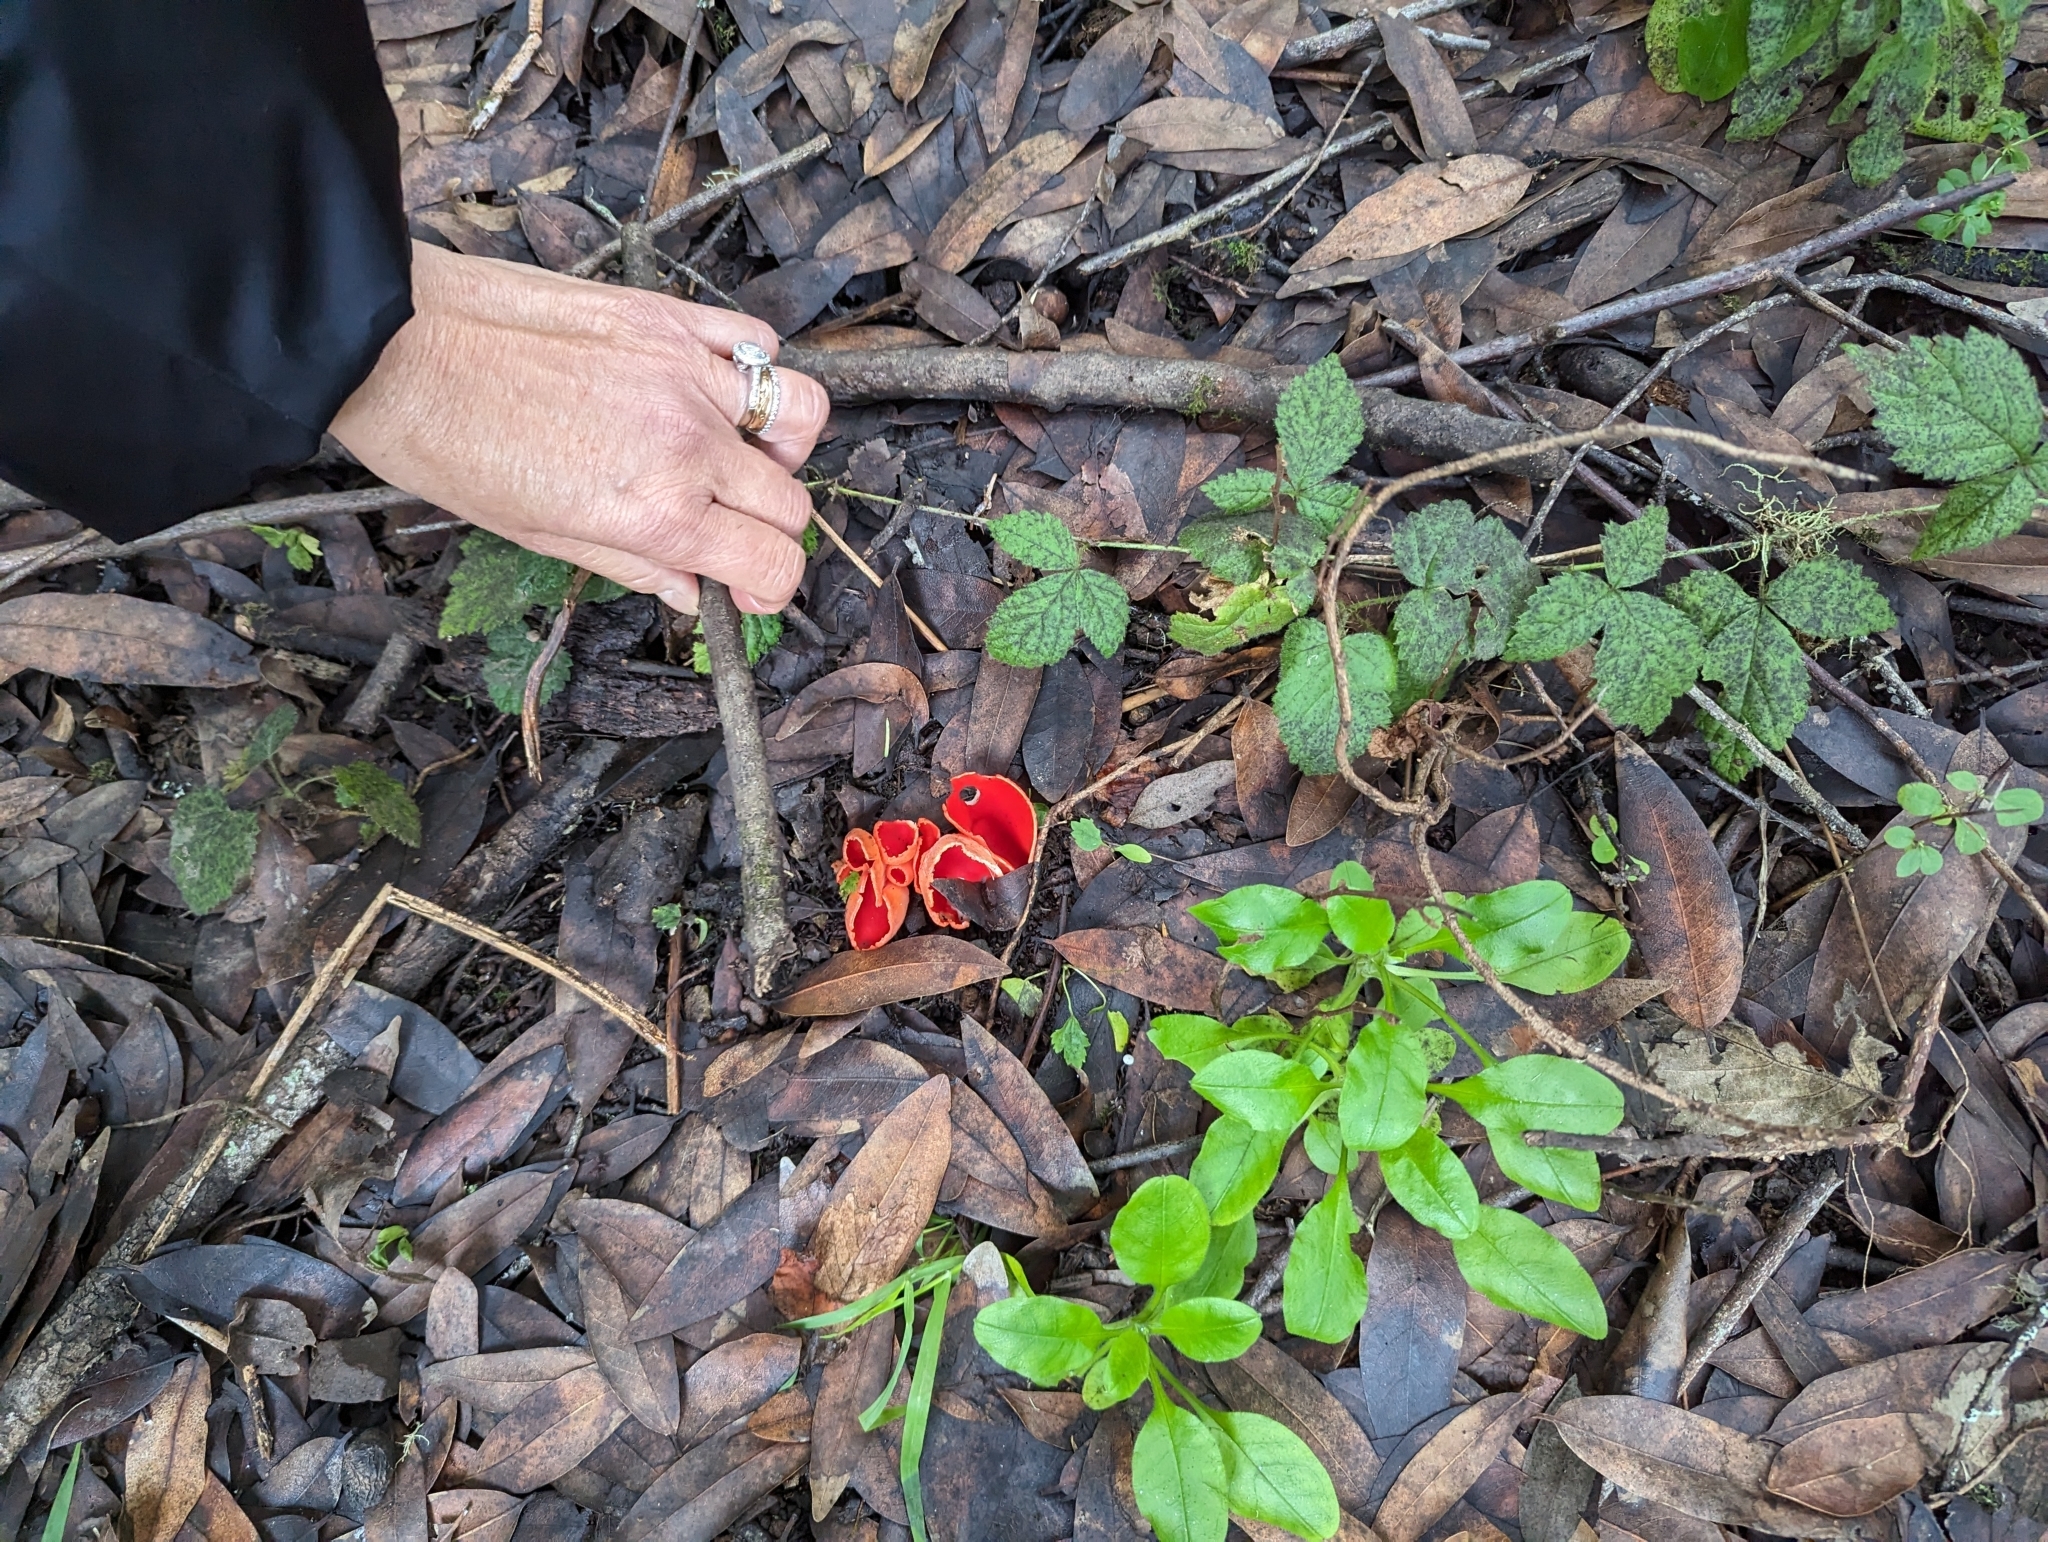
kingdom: Fungi
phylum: Ascomycota
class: Pezizomycetes
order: Pezizales
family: Sarcoscyphaceae
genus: Sarcoscypha
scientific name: Sarcoscypha coccinea
